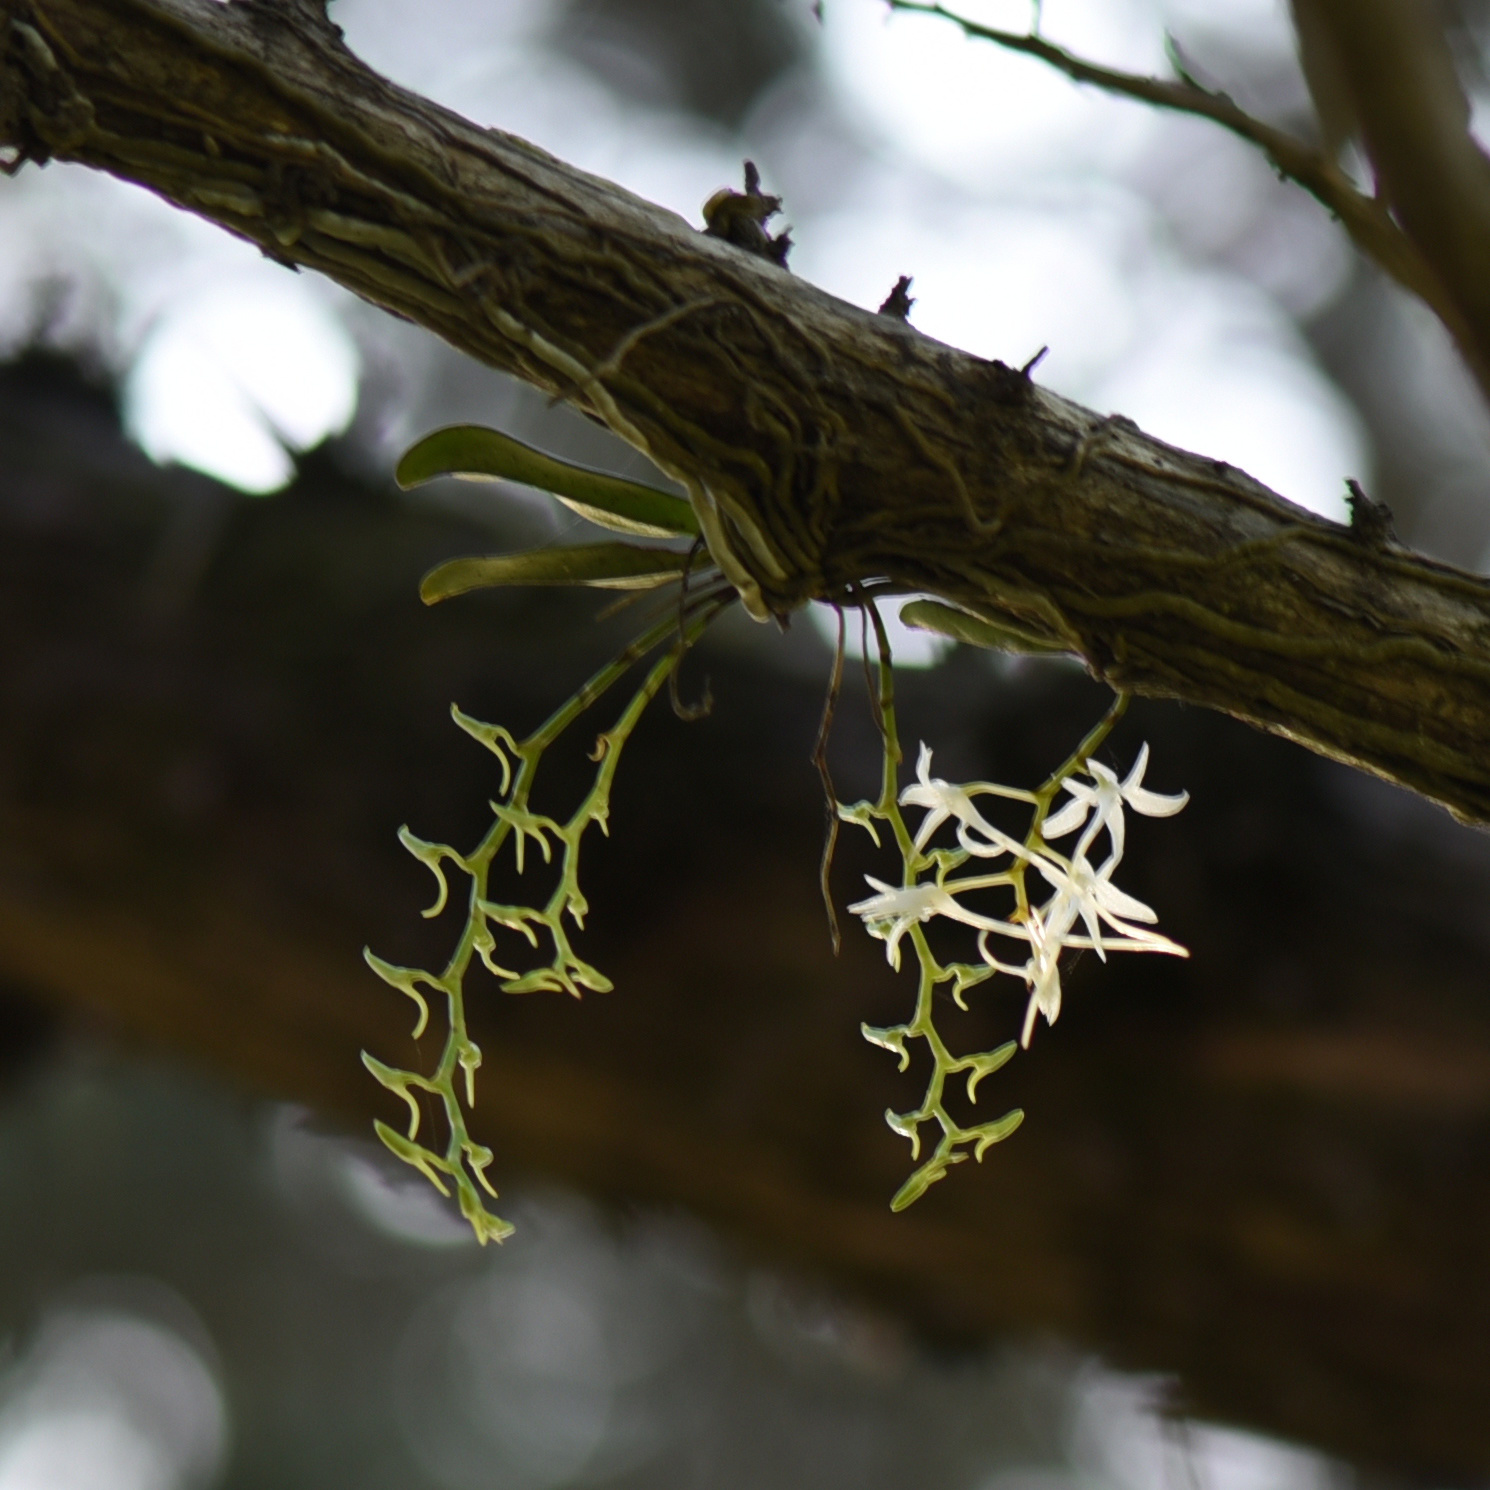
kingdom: Plantae
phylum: Tracheophyta
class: Liliopsida
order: Asparagales
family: Orchidaceae
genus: Mystacidium
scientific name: Mystacidium capense
